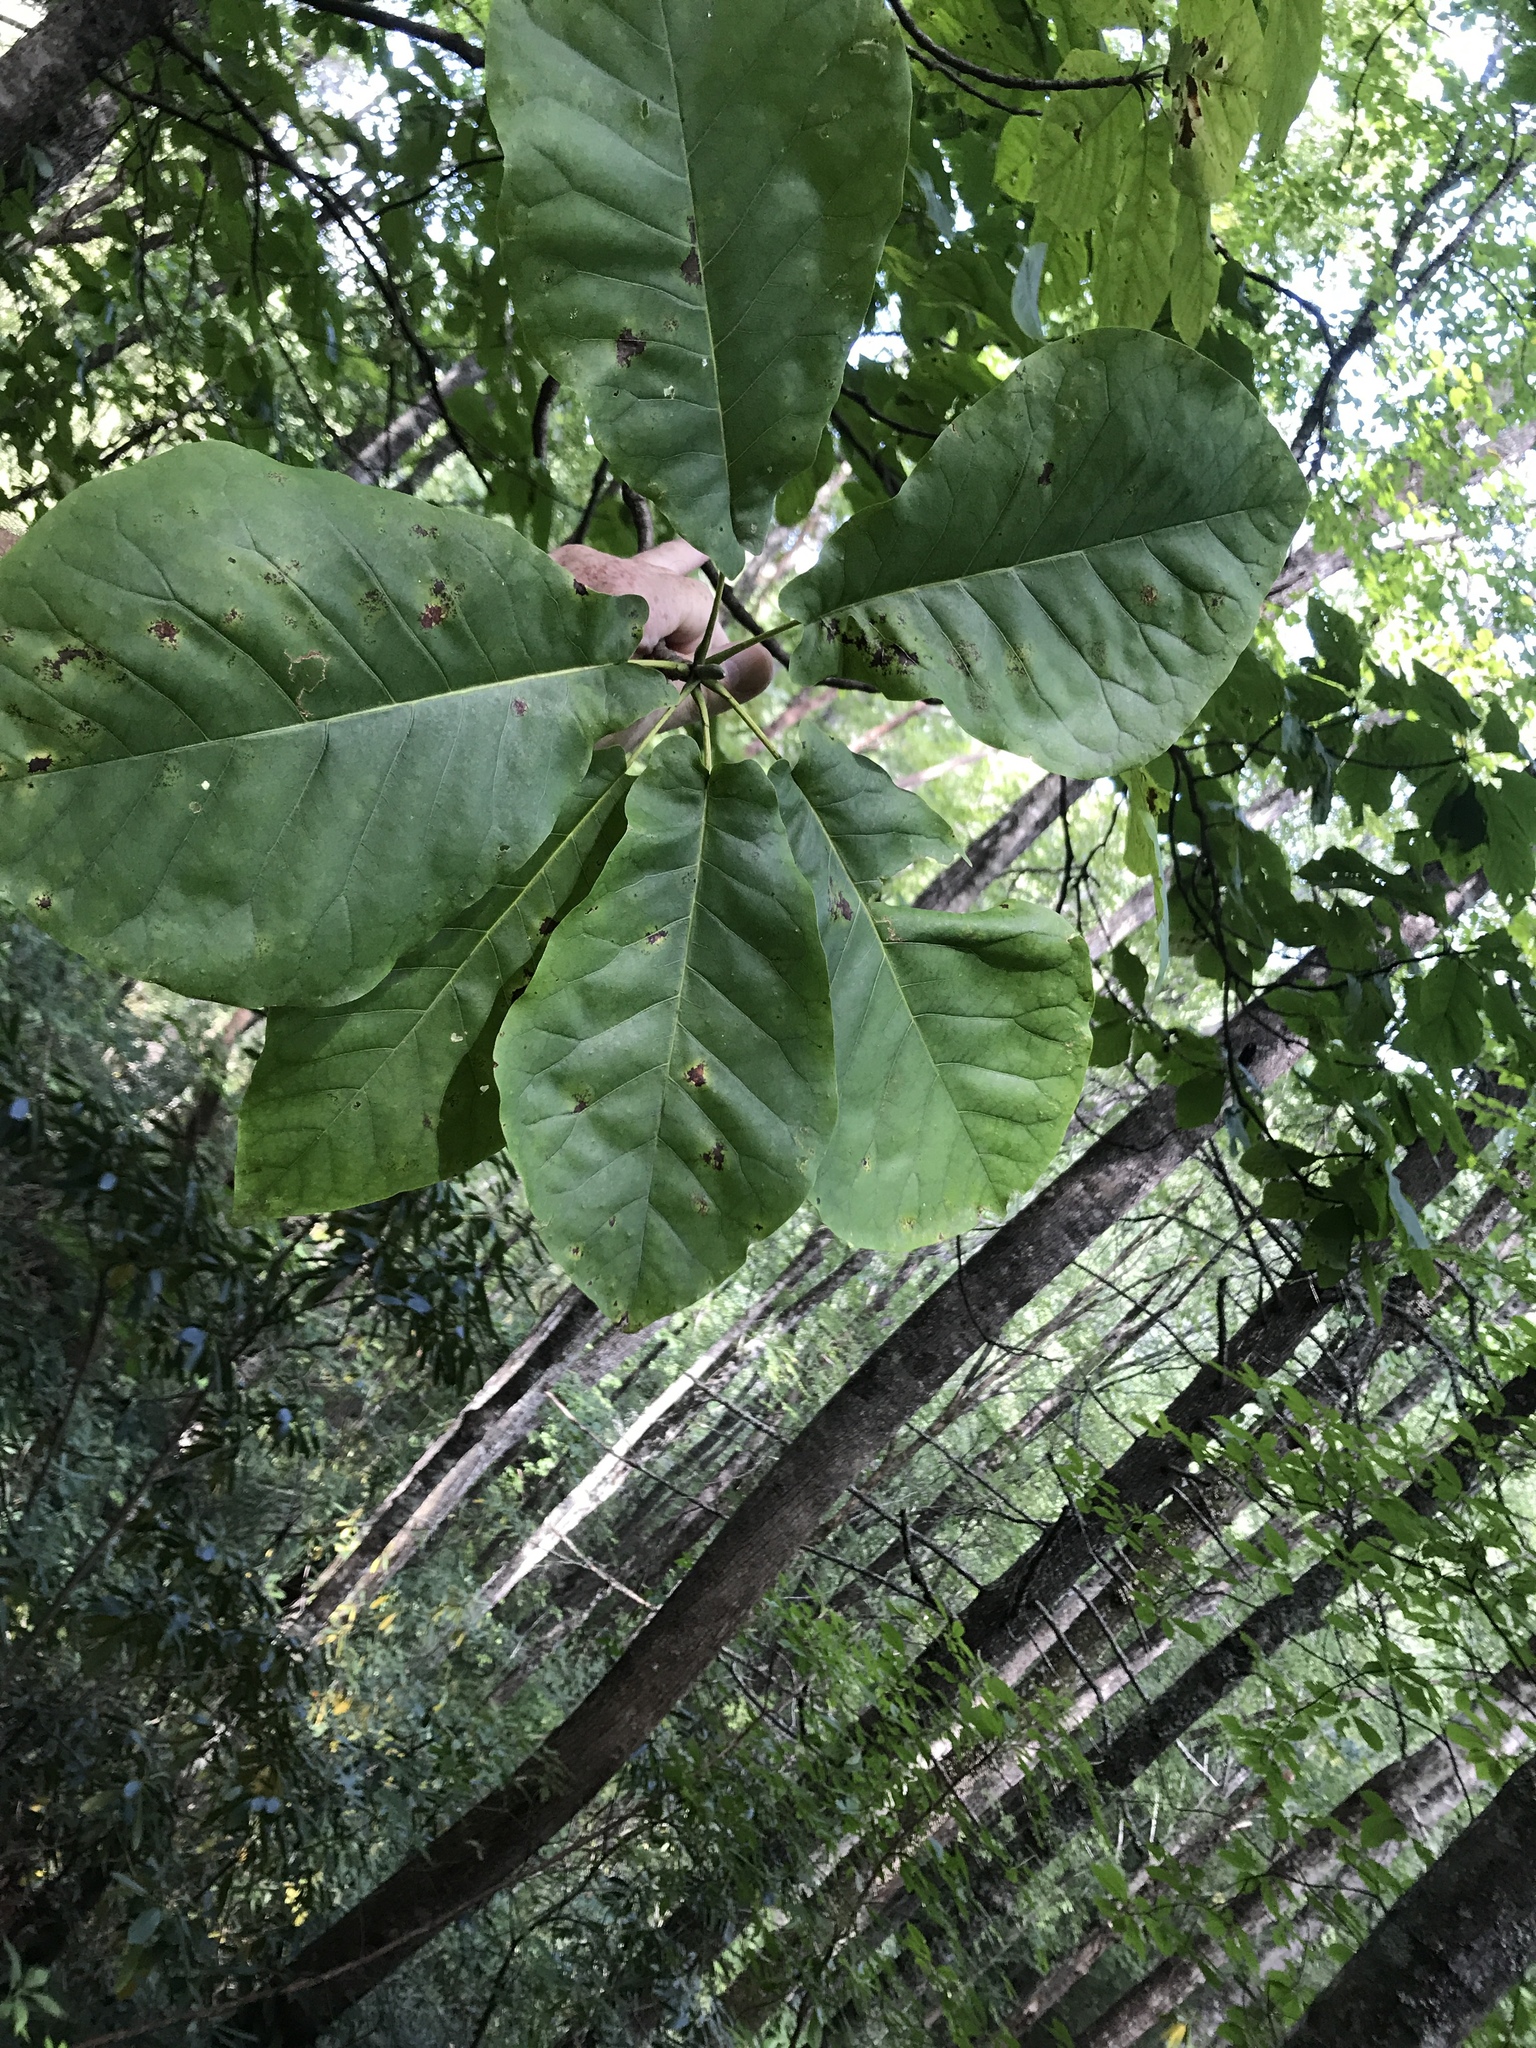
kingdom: Plantae
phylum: Tracheophyta
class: Magnoliopsida
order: Magnoliales
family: Magnoliaceae
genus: Magnolia
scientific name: Magnolia fraseri
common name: Fraser's magnolia
